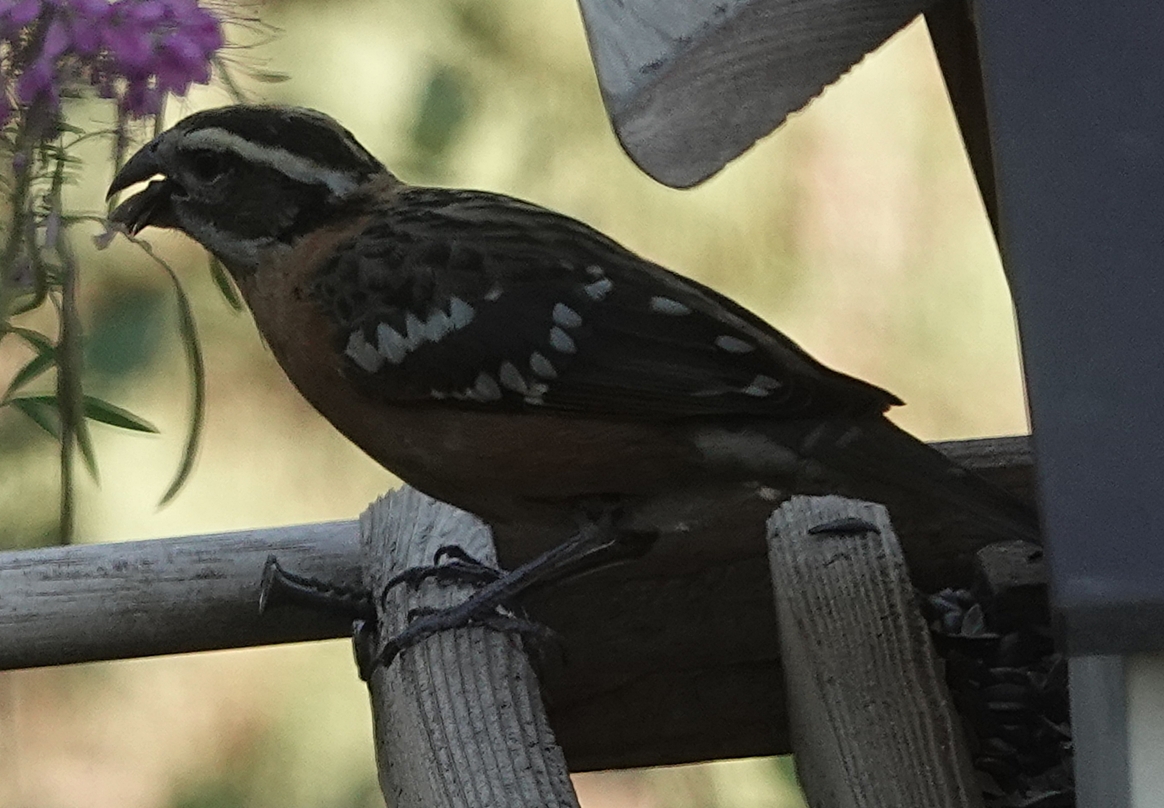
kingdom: Animalia
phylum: Chordata
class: Aves
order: Passeriformes
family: Cardinalidae
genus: Pheucticus
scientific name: Pheucticus melanocephalus
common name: Black-headed grosbeak
